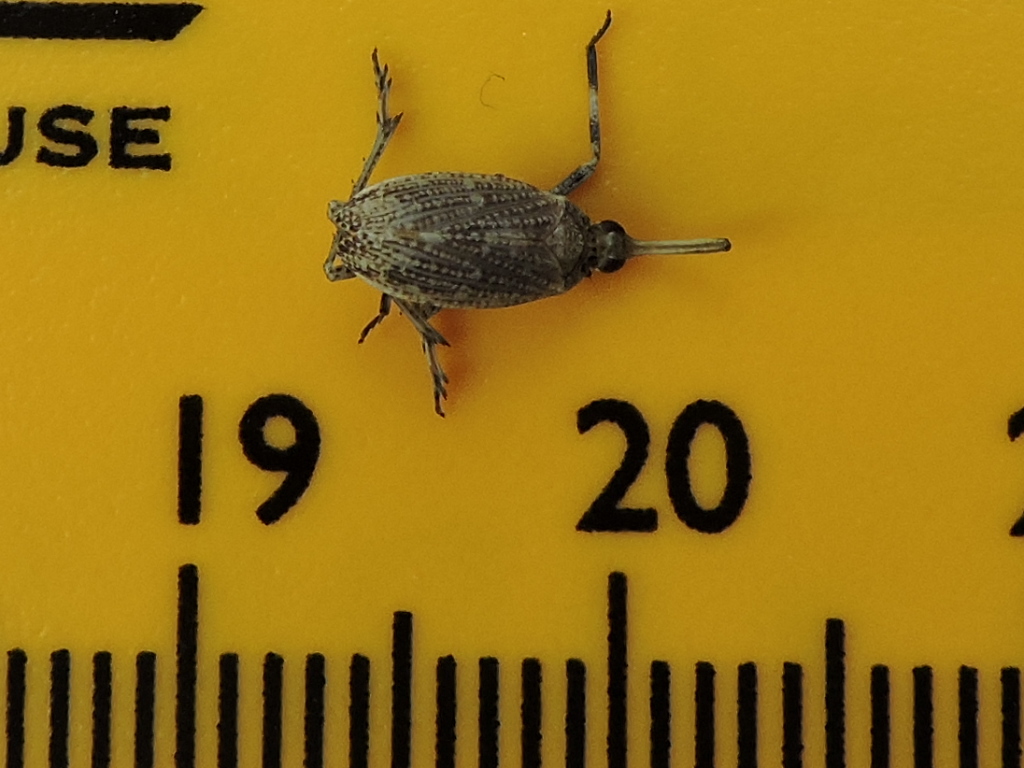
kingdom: Animalia
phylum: Arthropoda
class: Insecta
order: Hemiptera
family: Dictyopharidae
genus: Scolops
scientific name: Scolops pungens
